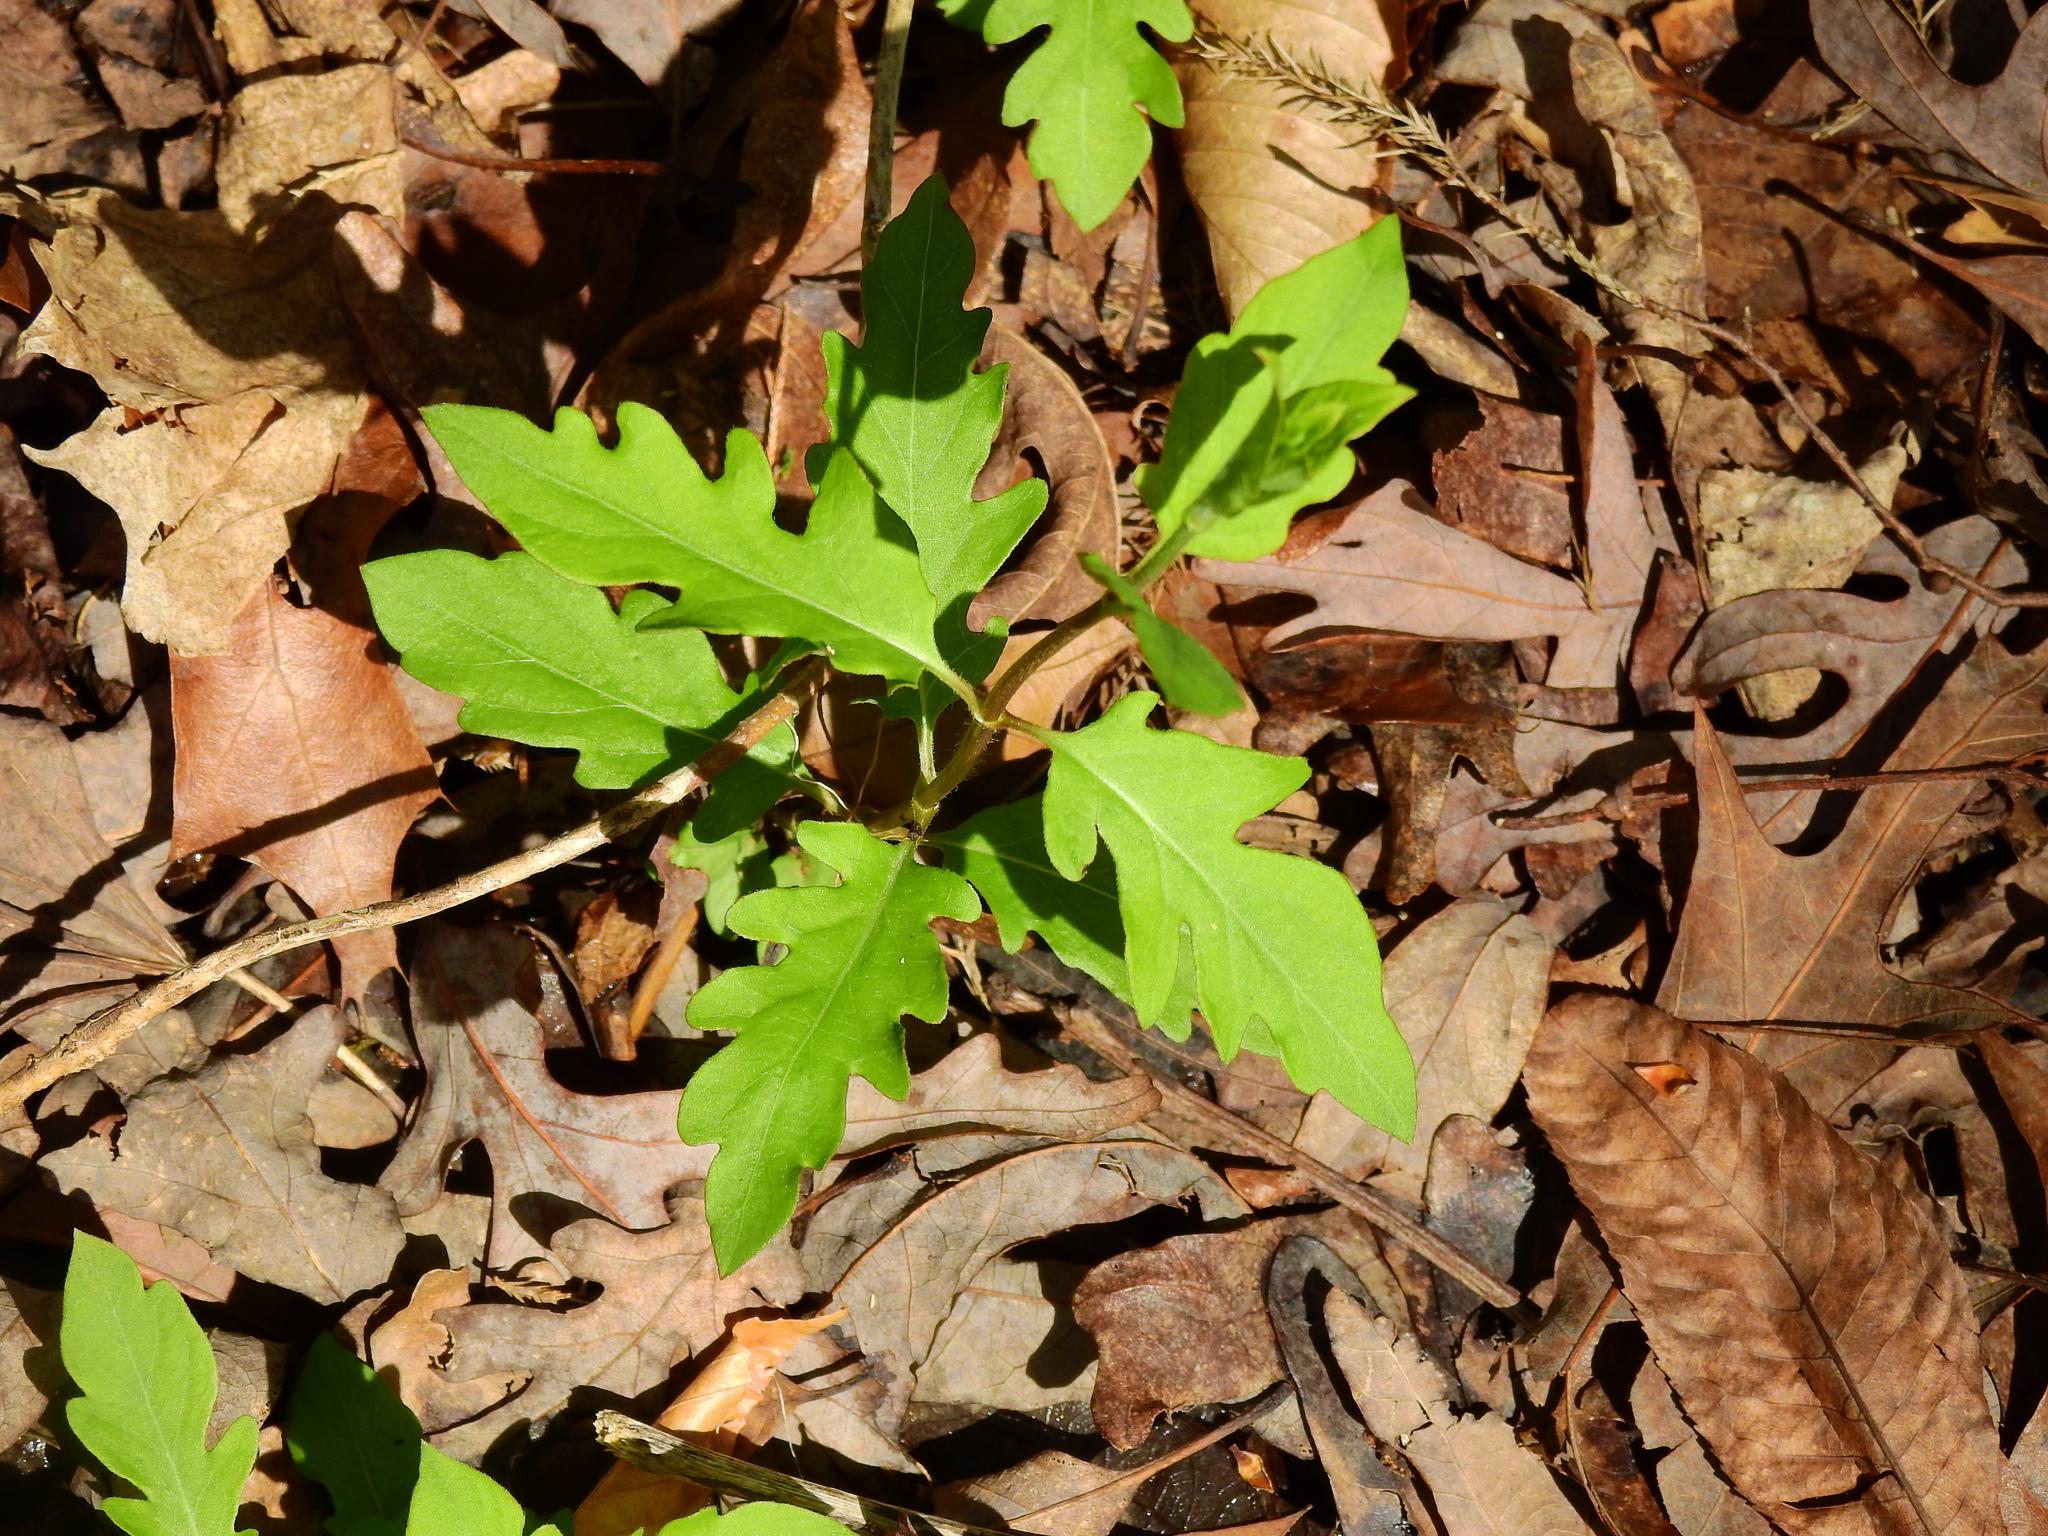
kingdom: Plantae
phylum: Tracheophyta
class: Magnoliopsida
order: Dipsacales
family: Caprifoliaceae
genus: Lonicera
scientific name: Lonicera japonica
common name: Japanese honeysuckle
